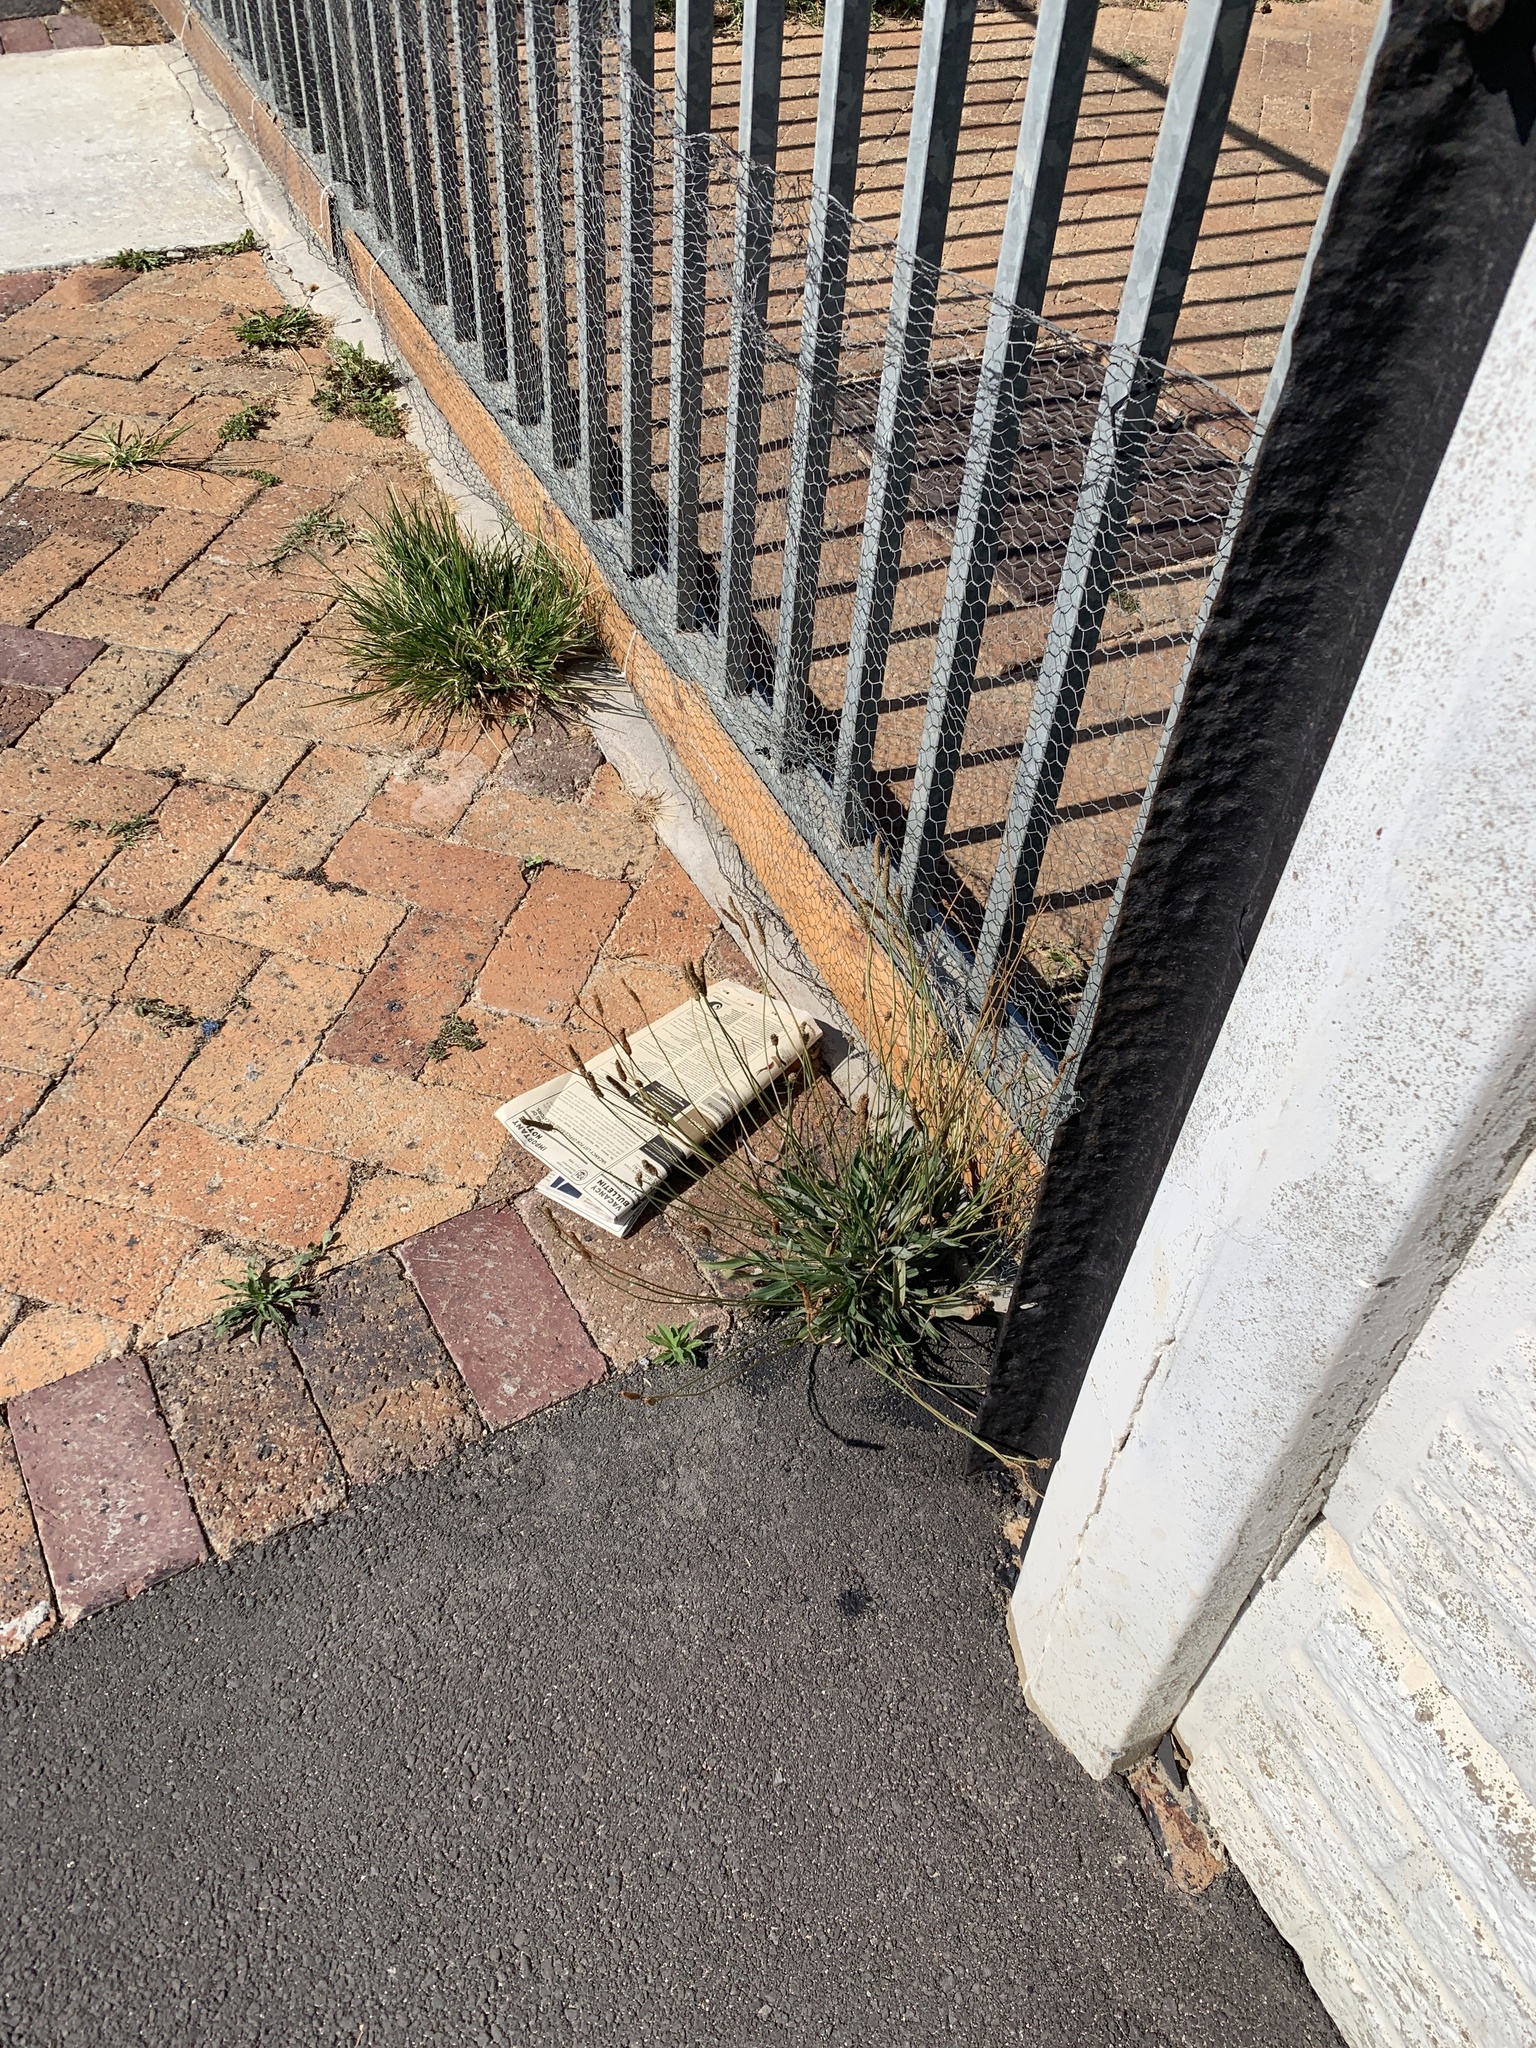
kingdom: Plantae
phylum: Tracheophyta
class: Magnoliopsida
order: Lamiales
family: Plantaginaceae
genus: Plantago
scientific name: Plantago lanceolata
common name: Ribwort plantain
